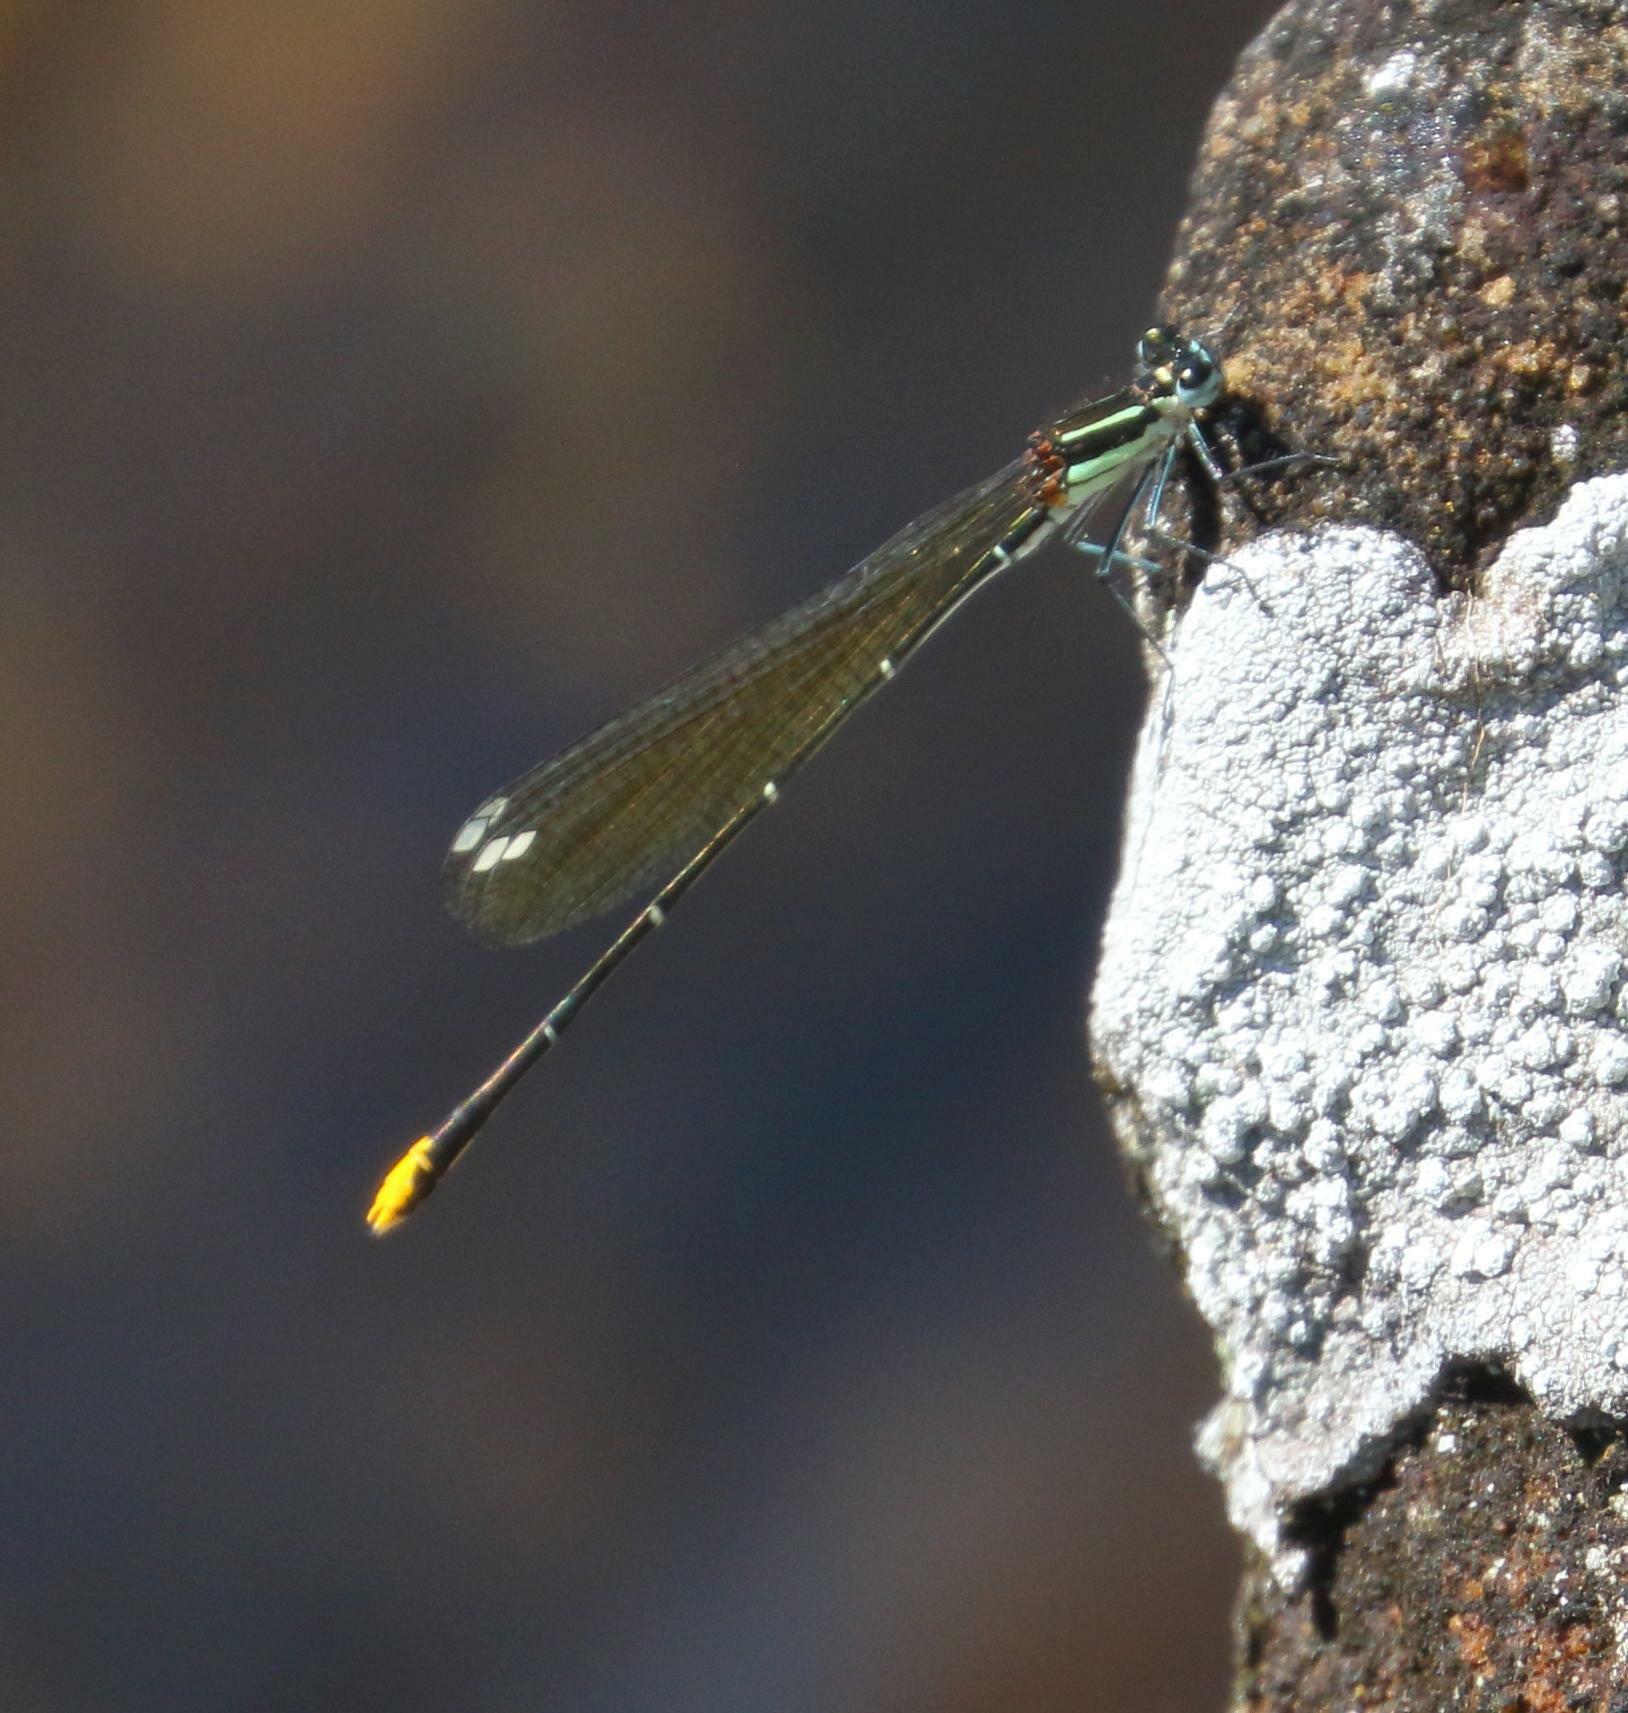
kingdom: Animalia
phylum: Arthropoda
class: Insecta
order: Odonata
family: Platycnemididae
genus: Allocnemis
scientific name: Allocnemis leucosticta
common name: Goldtail
